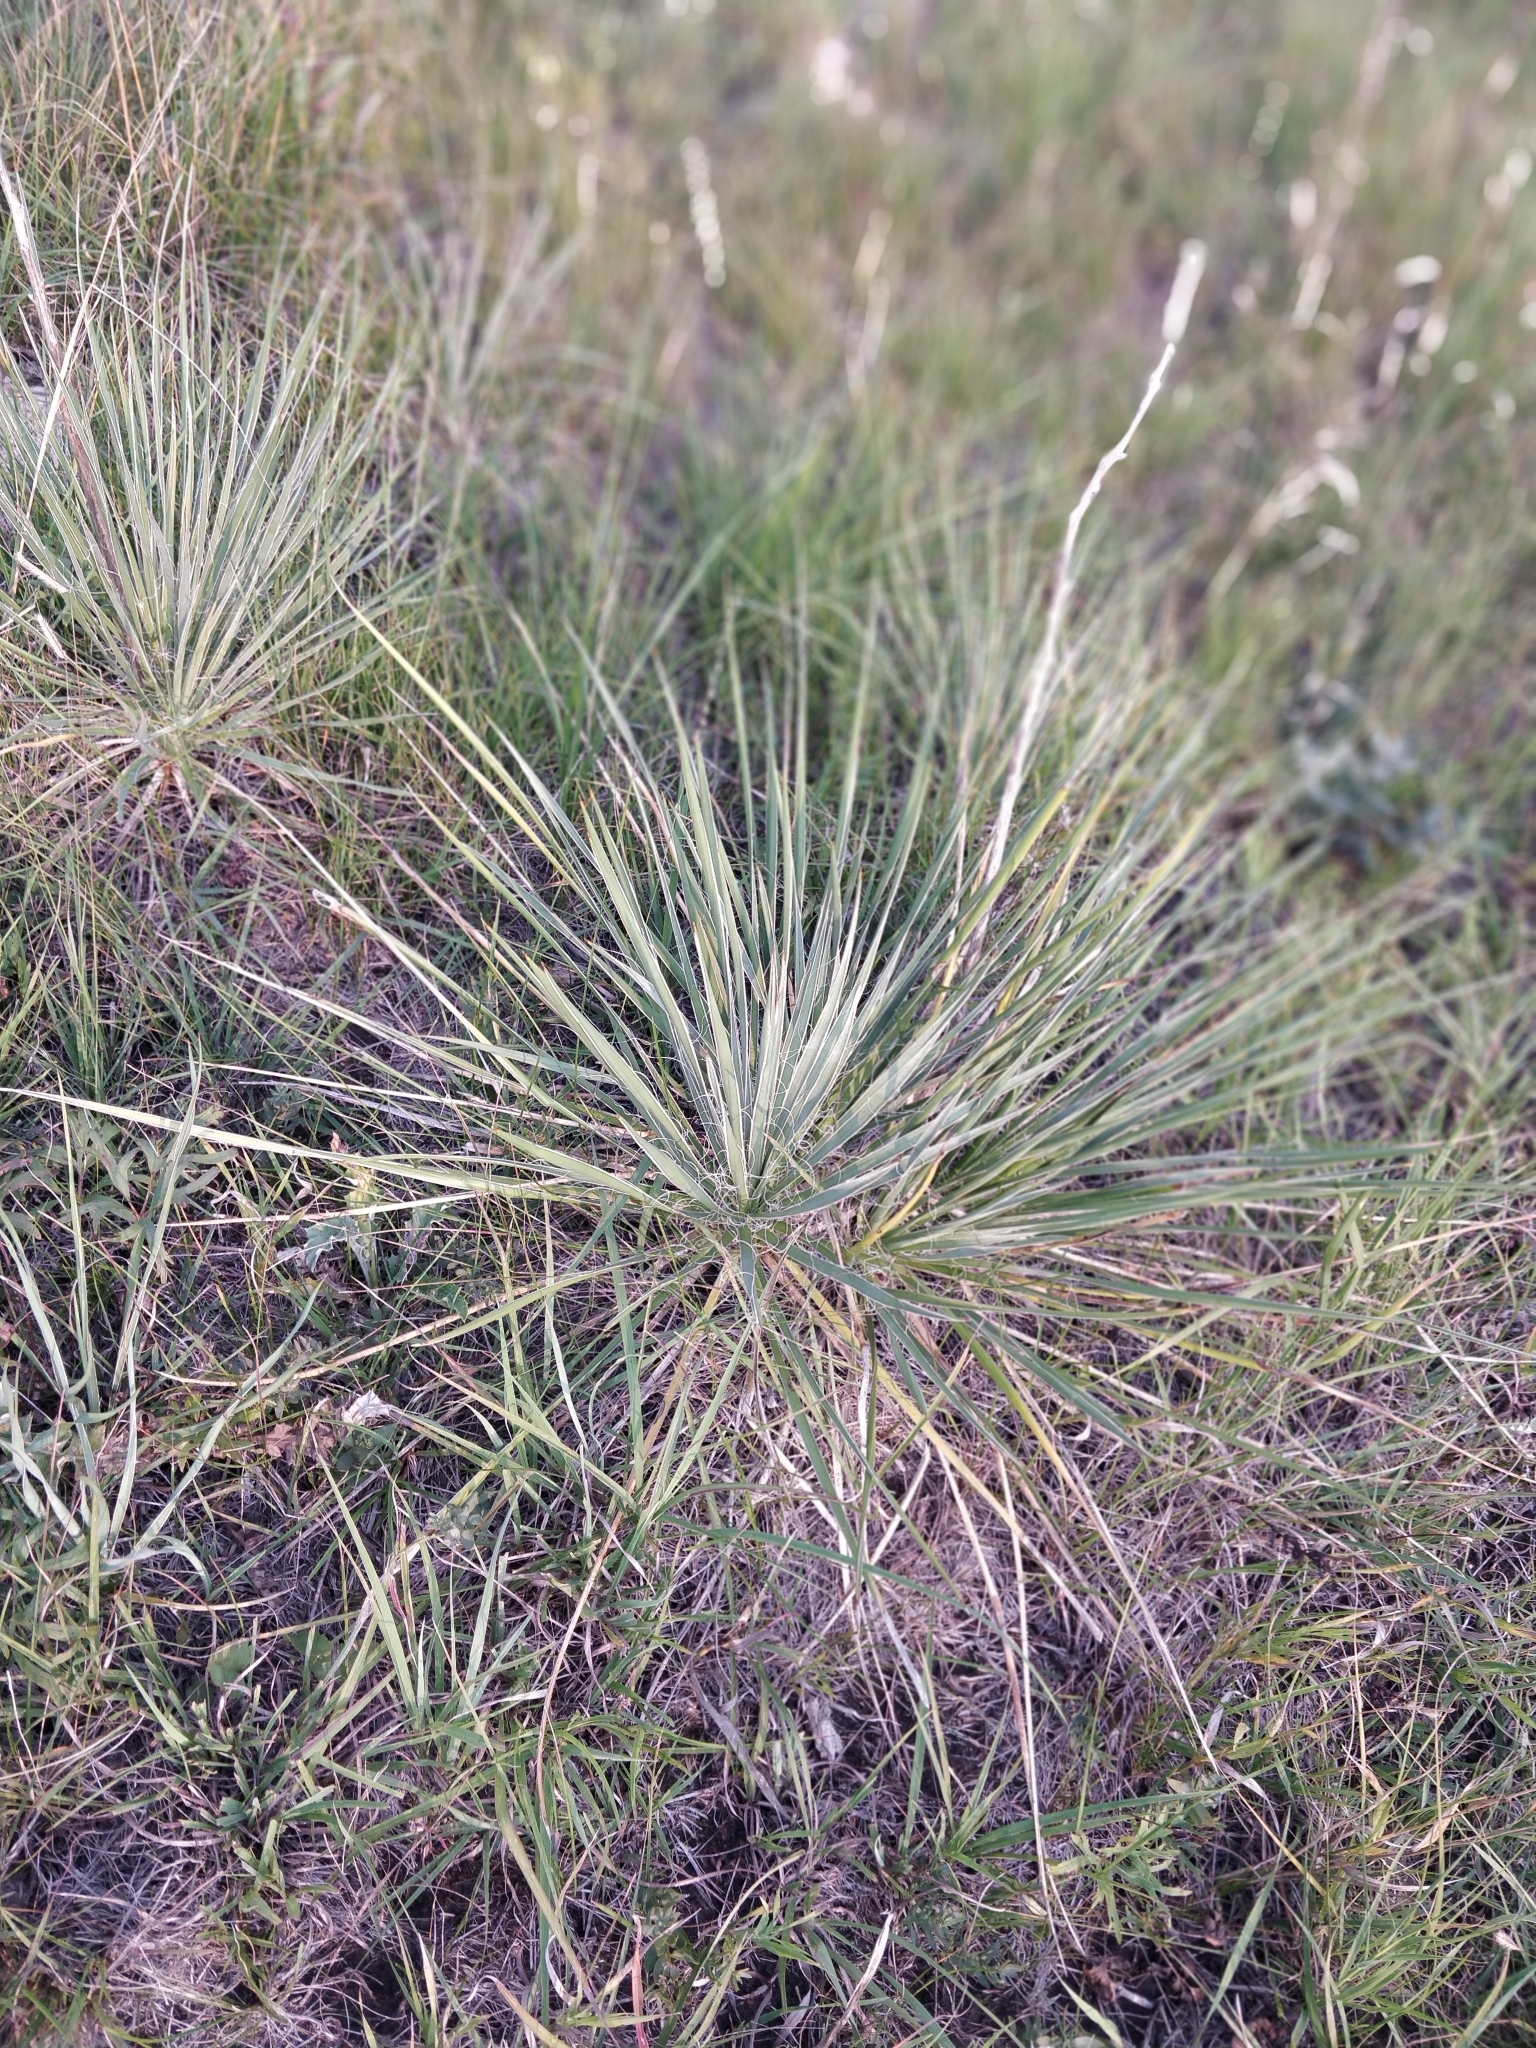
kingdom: Plantae
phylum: Tracheophyta
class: Liliopsida
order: Asparagales
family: Asparagaceae
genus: Yucca
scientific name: Yucca glauca
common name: Great plains yucca
